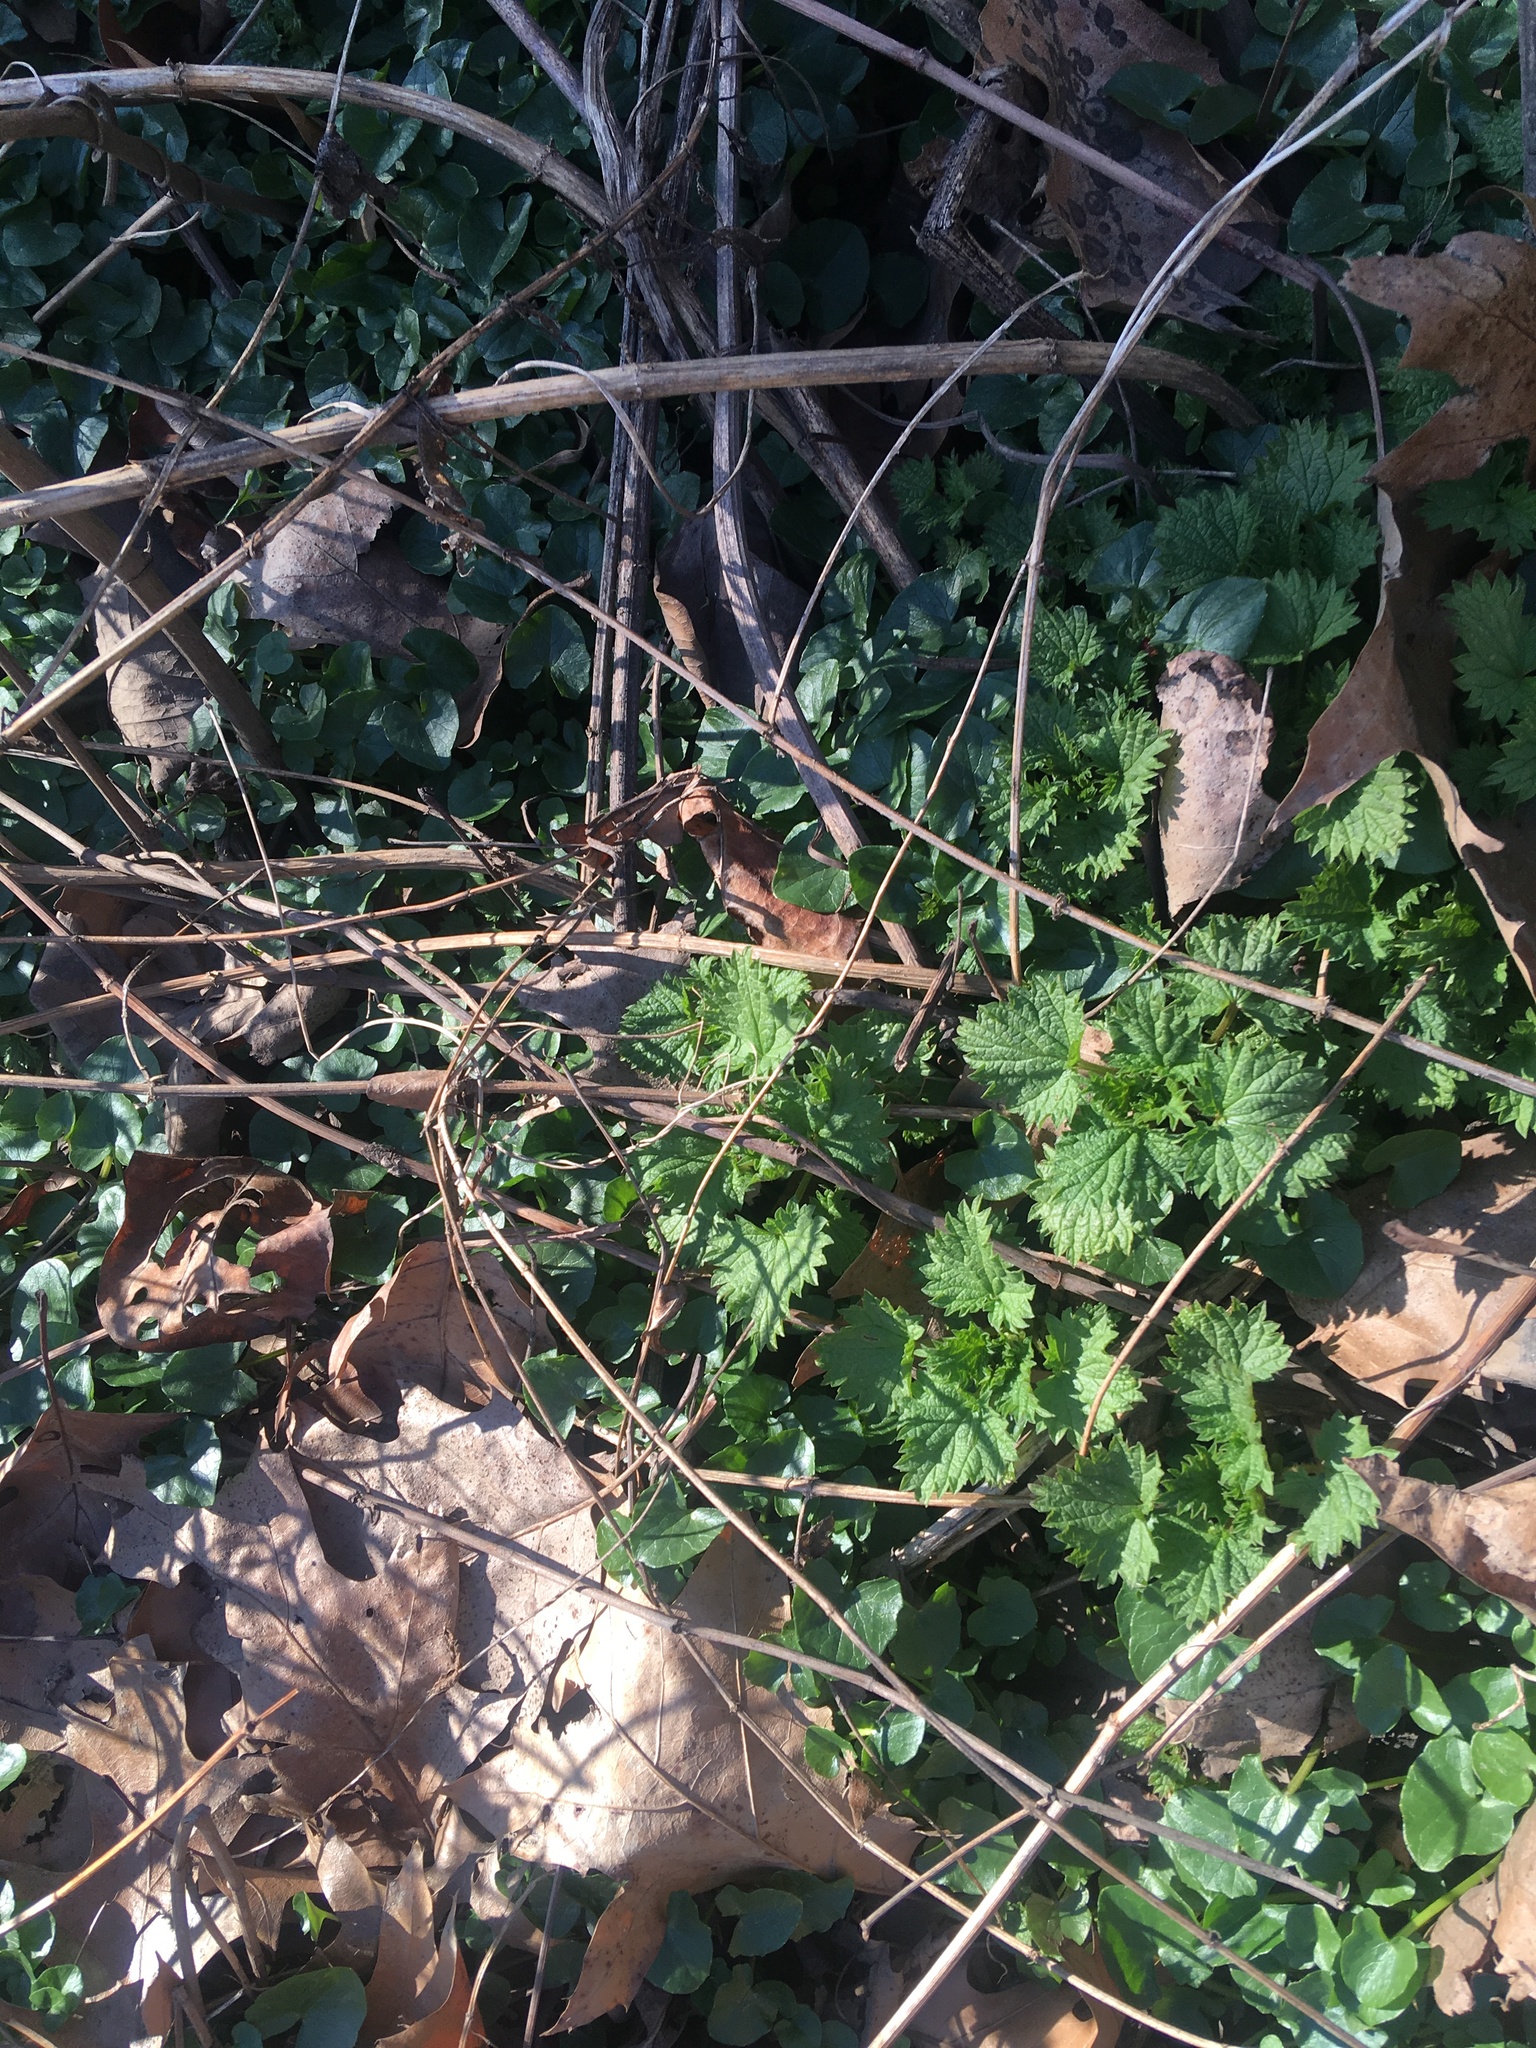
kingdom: Plantae
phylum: Tracheophyta
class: Magnoliopsida
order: Ranunculales
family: Ranunculaceae
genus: Ficaria
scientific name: Ficaria verna
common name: Lesser celandine
